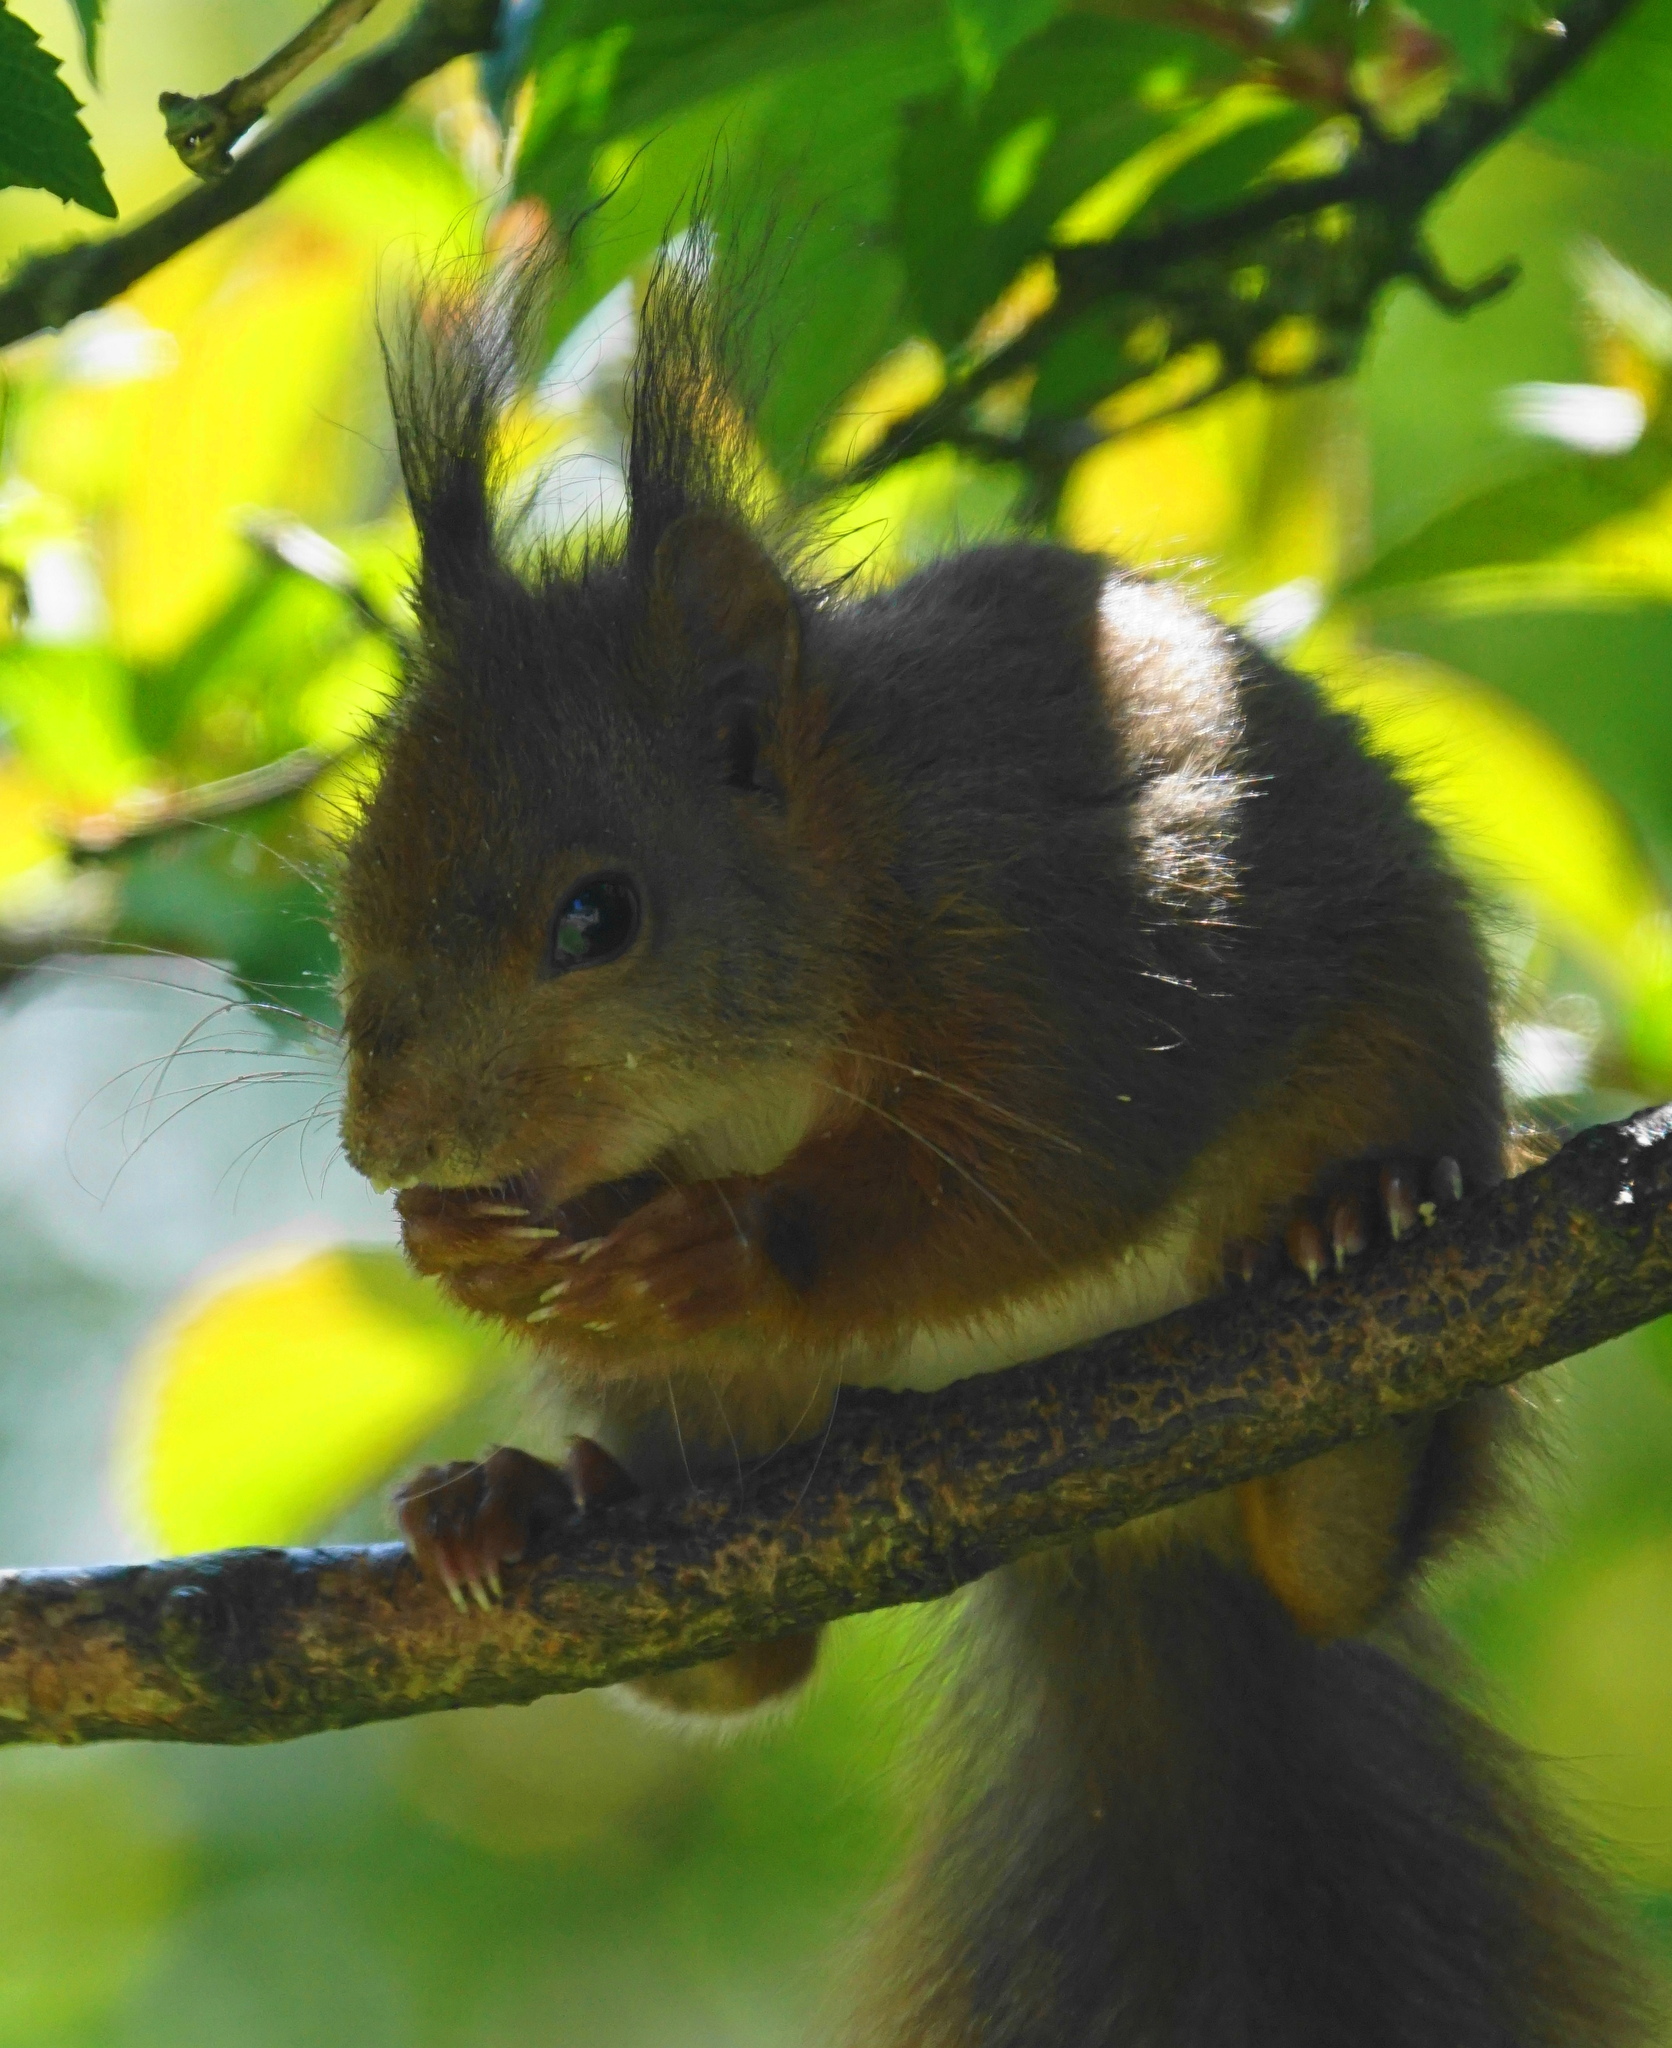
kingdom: Animalia
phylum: Chordata
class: Mammalia
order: Rodentia
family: Sciuridae
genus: Sciurus
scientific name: Sciurus vulgaris
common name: Eurasian red squirrel
